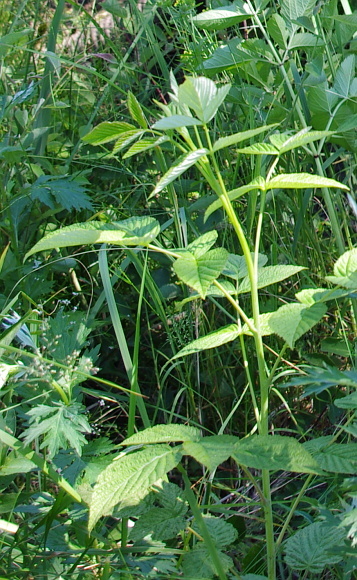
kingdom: Plantae
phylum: Tracheophyta
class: Magnoliopsida
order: Rosales
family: Rosaceae
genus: Rubus
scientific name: Rubus idaeus
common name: Raspberry
